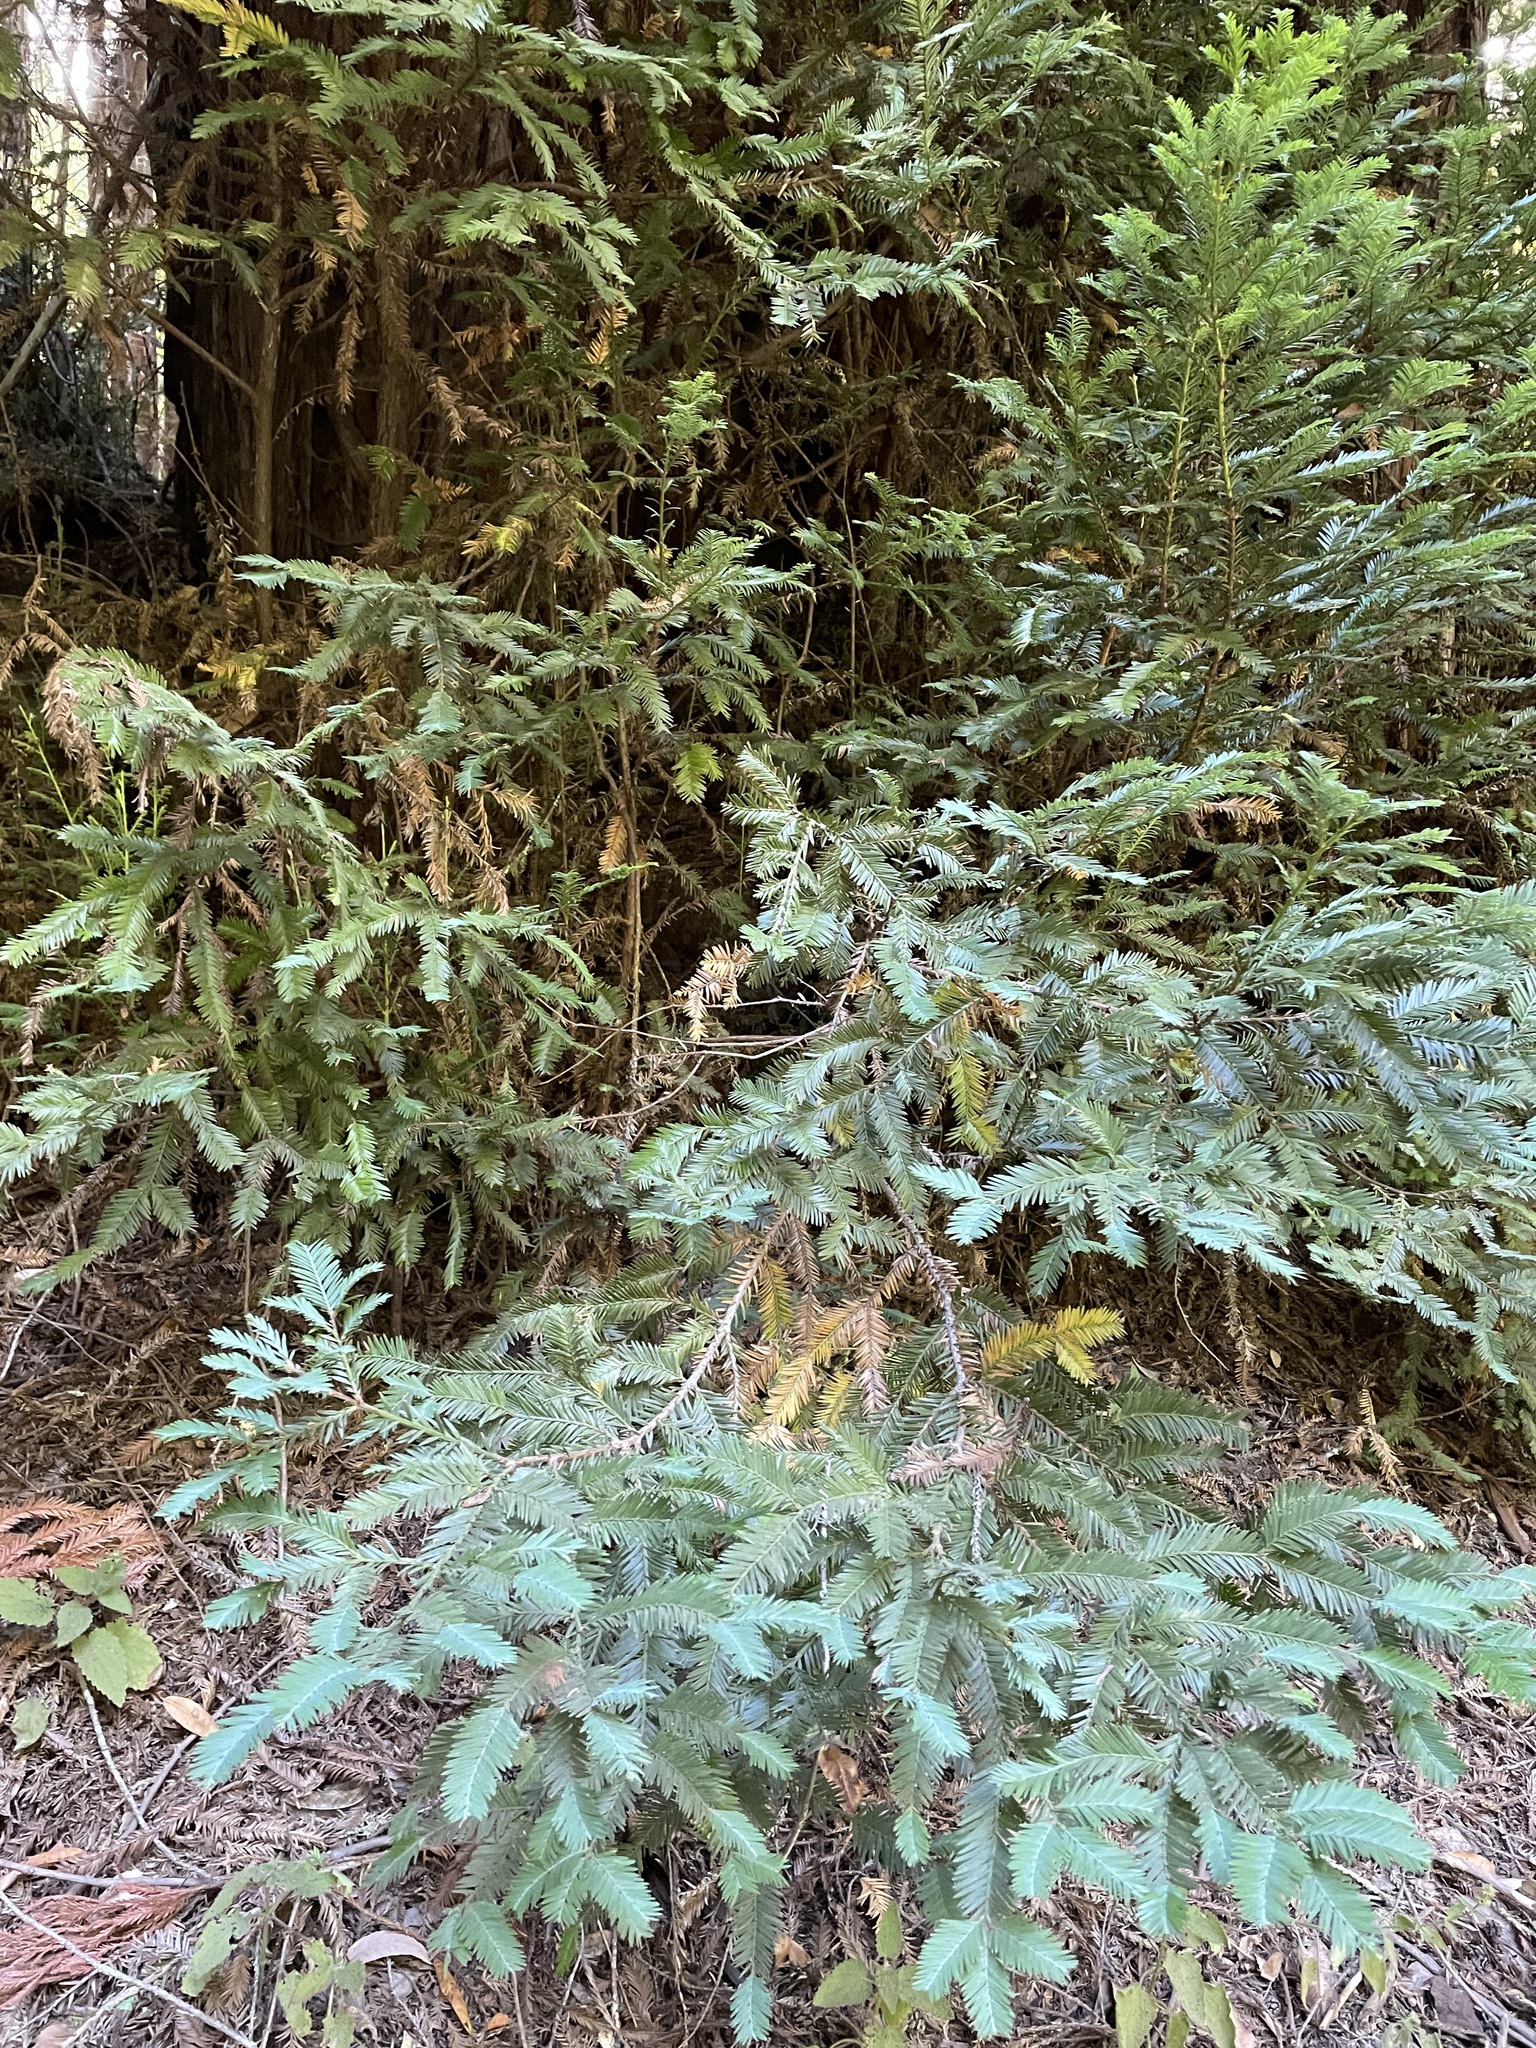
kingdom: Plantae
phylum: Tracheophyta
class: Pinopsida
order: Pinales
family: Cupressaceae
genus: Sequoia
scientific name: Sequoia sempervirens
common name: Coast redwood
